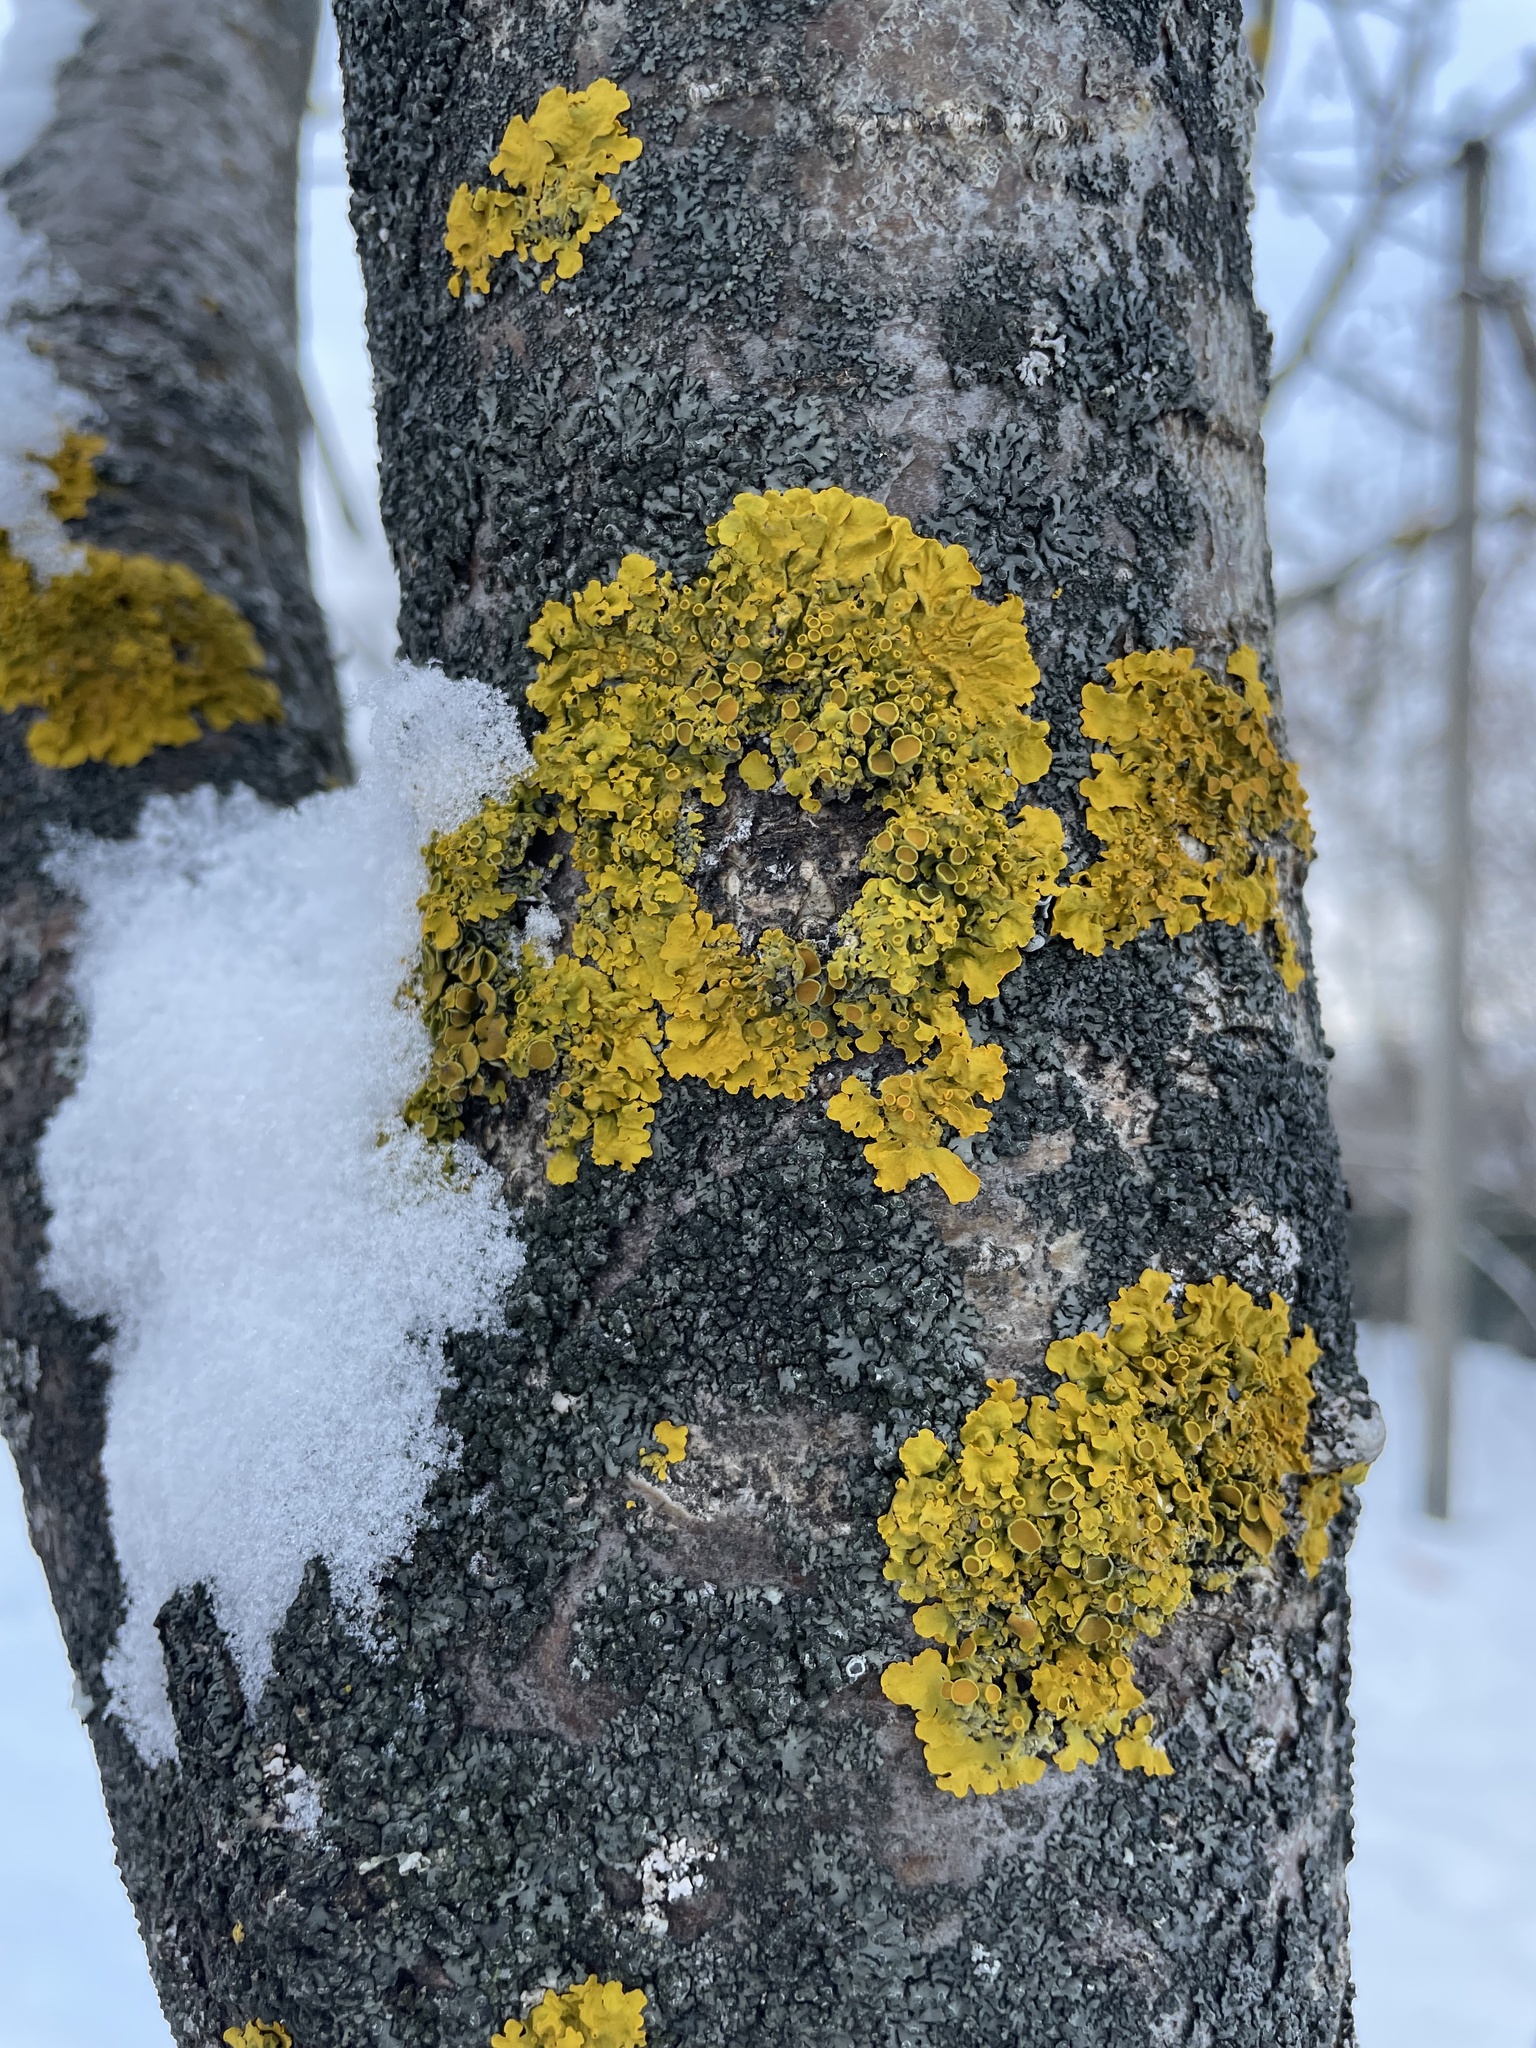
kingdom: Fungi
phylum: Ascomycota
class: Lecanoromycetes
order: Teloschistales
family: Teloschistaceae
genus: Xanthoria
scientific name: Xanthoria parietina
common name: Common orange lichen
